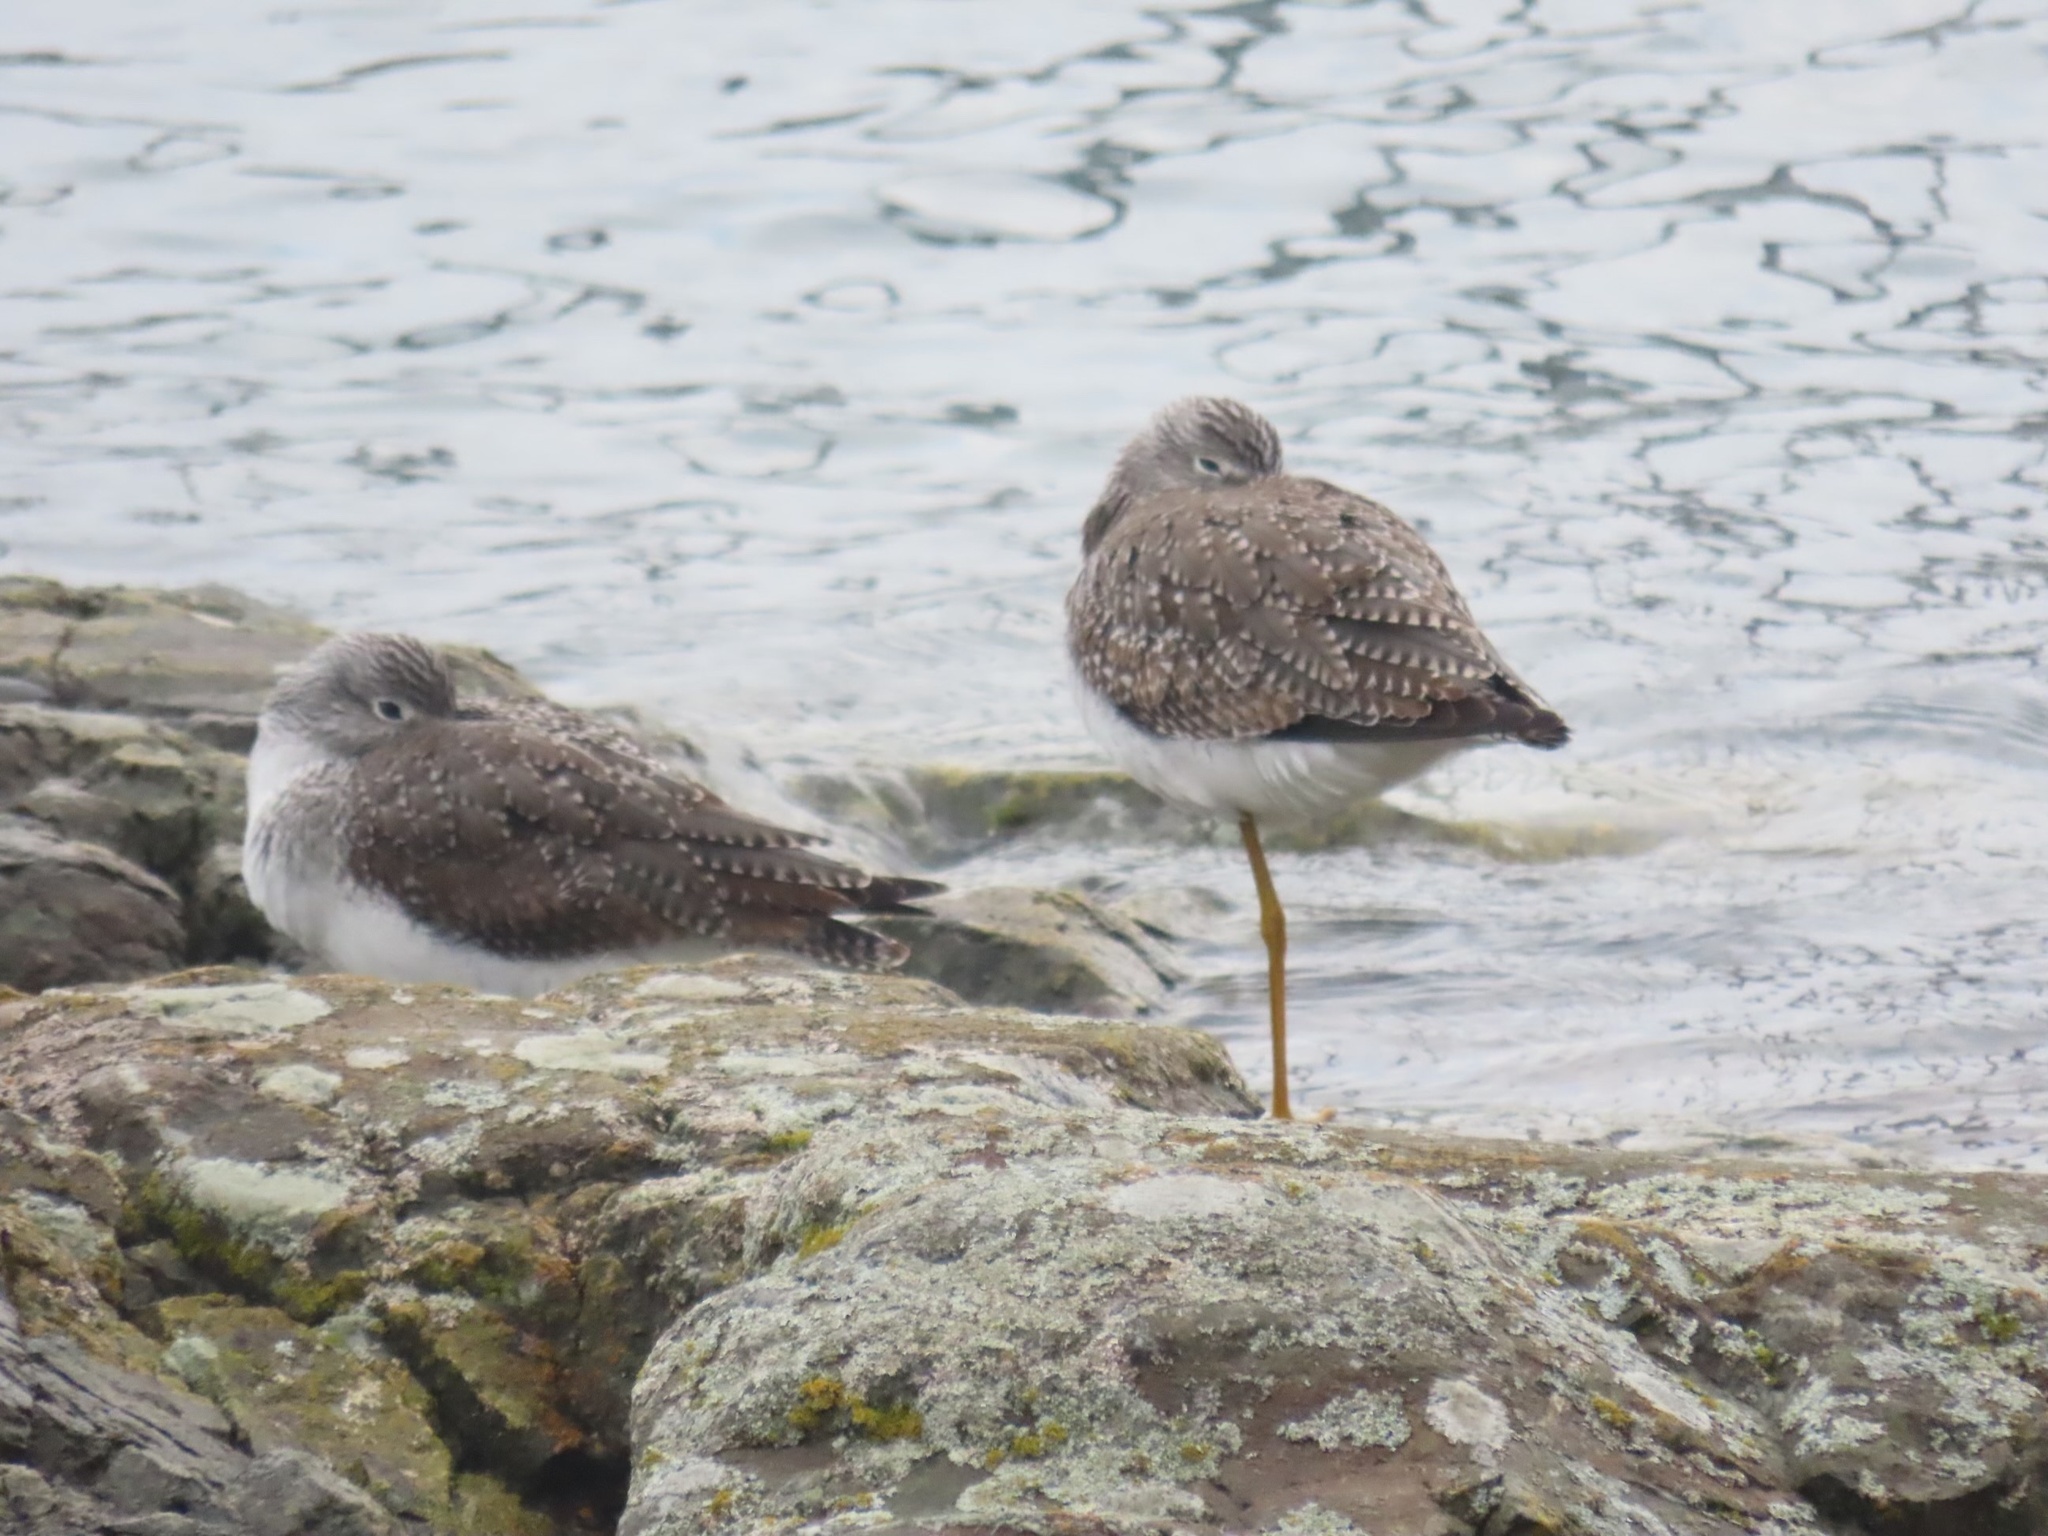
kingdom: Animalia
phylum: Chordata
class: Aves
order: Charadriiformes
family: Scolopacidae
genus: Tringa
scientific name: Tringa melanoleuca
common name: Greater yellowlegs
